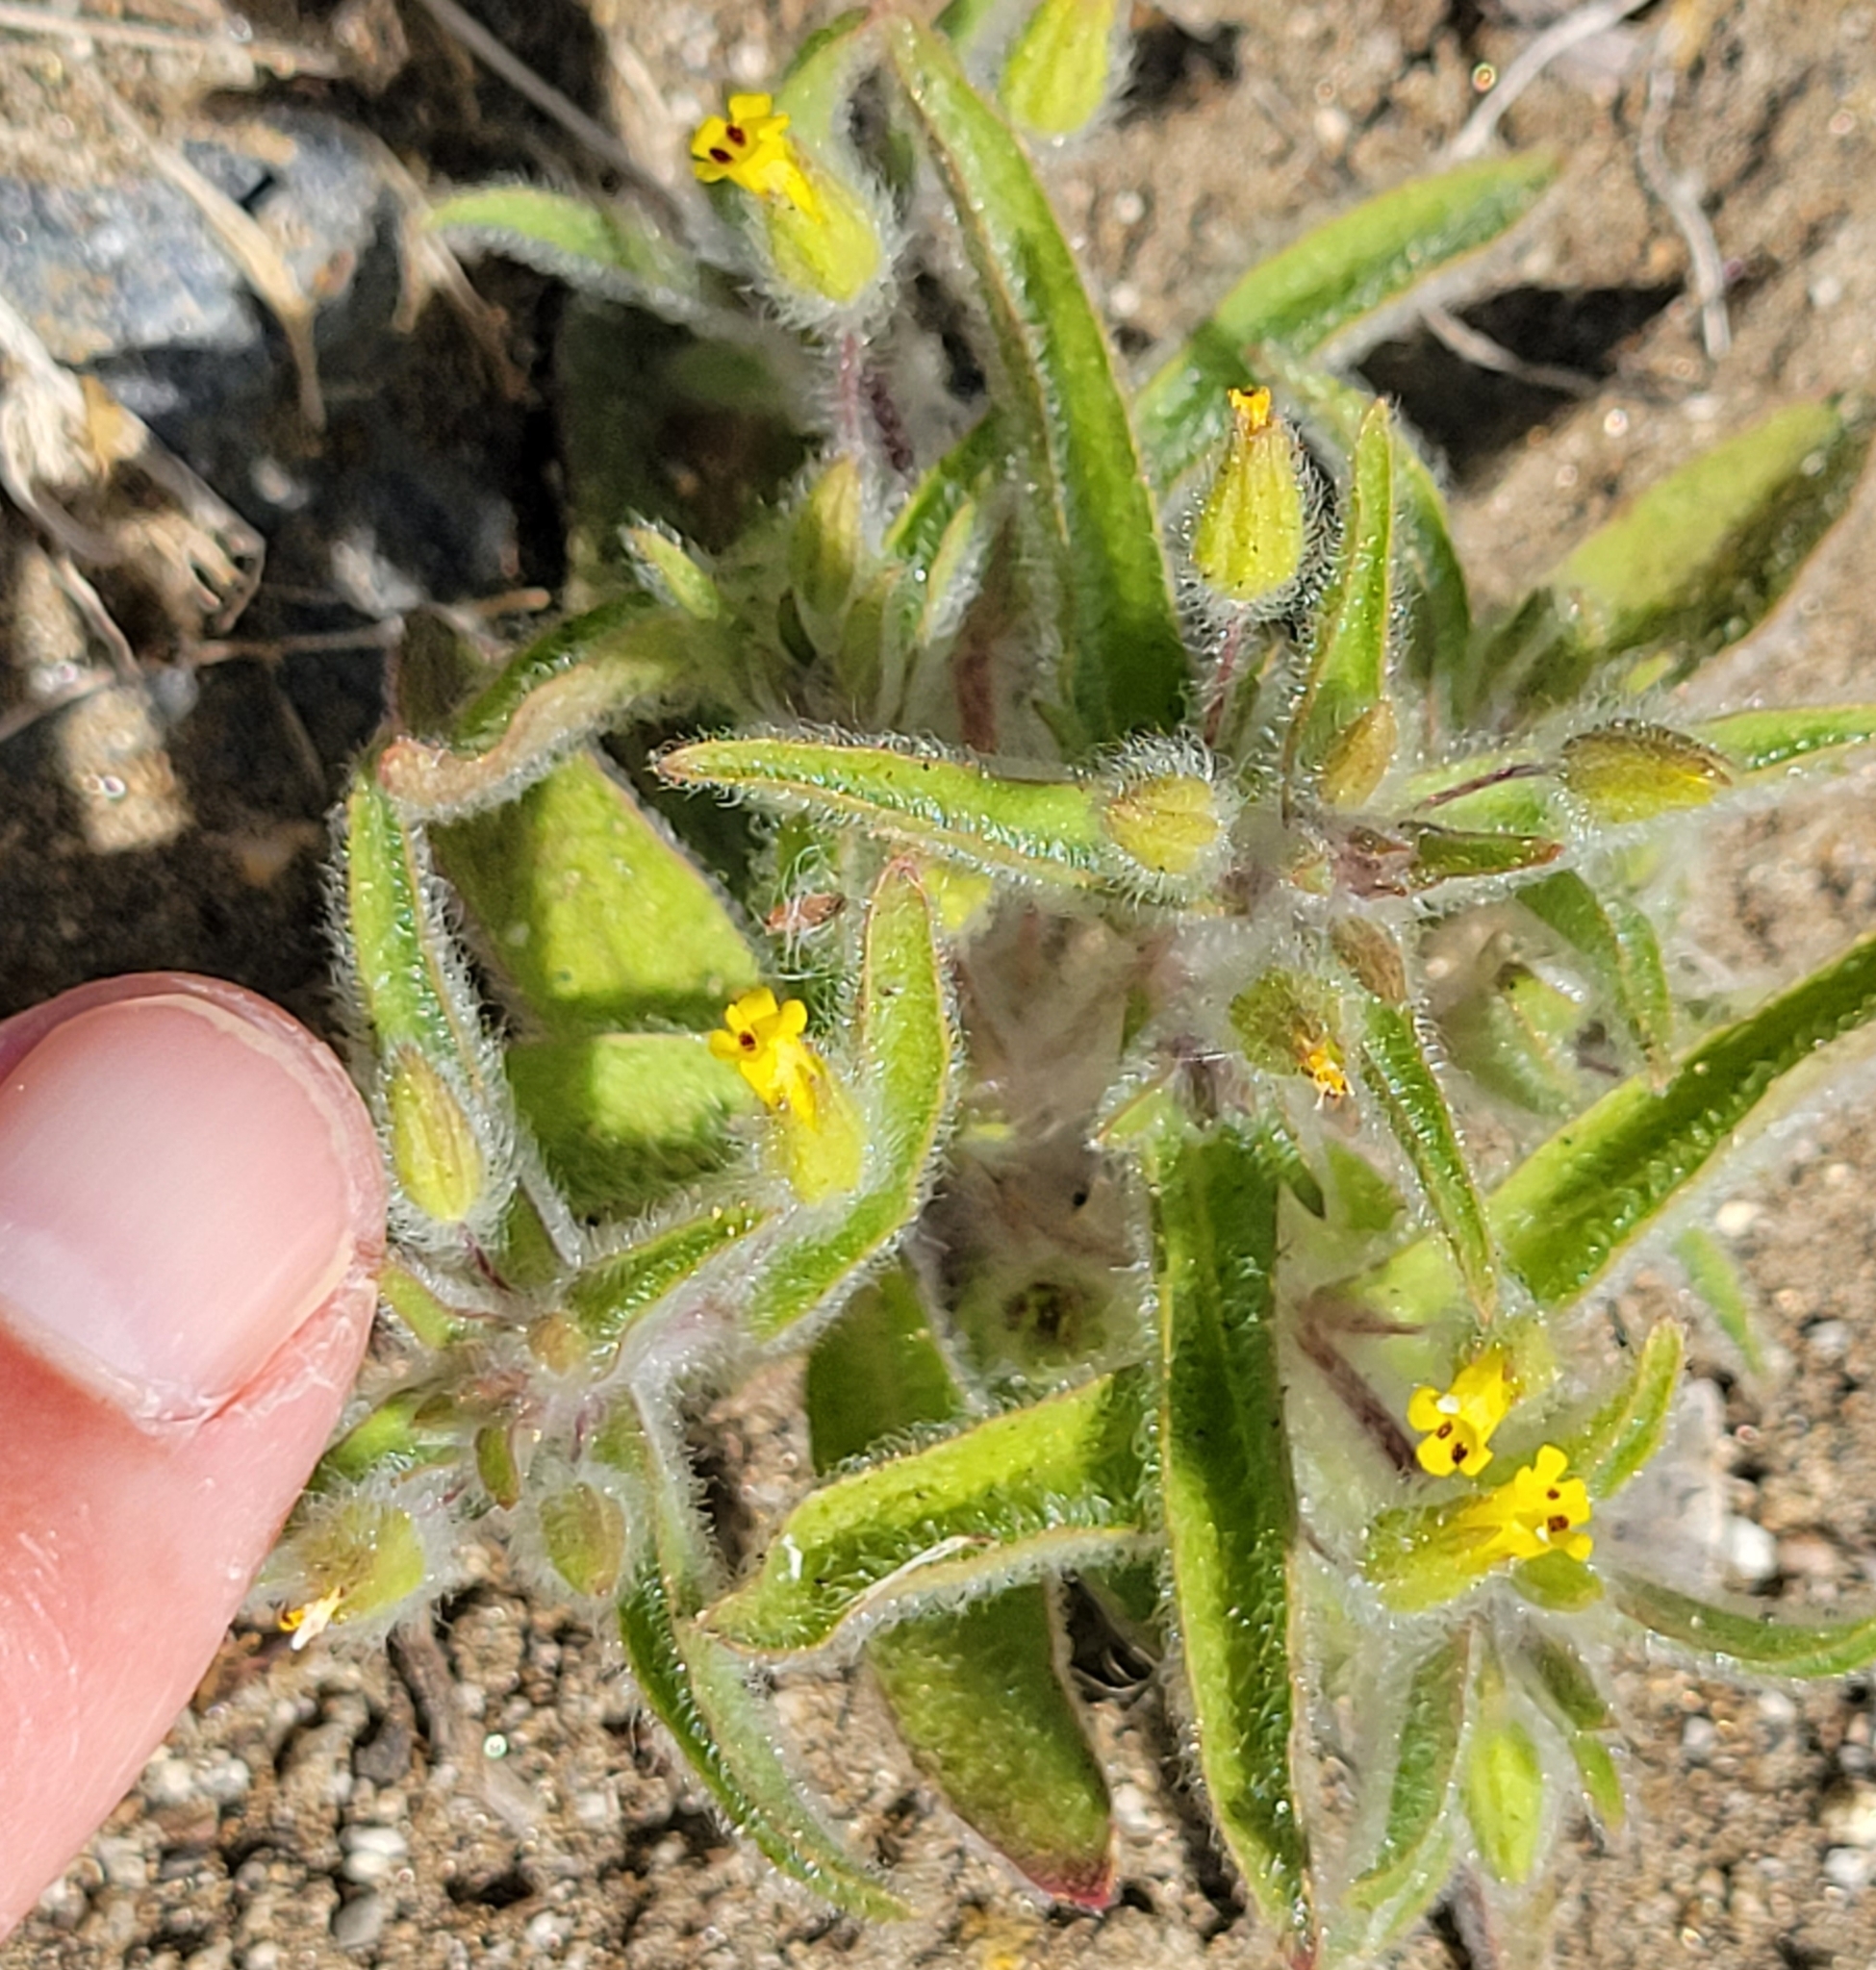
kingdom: Plantae
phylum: Tracheophyta
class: Magnoliopsida
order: Lamiales
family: Phrymaceae
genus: Mimetanthe
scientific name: Mimetanthe pilosa
